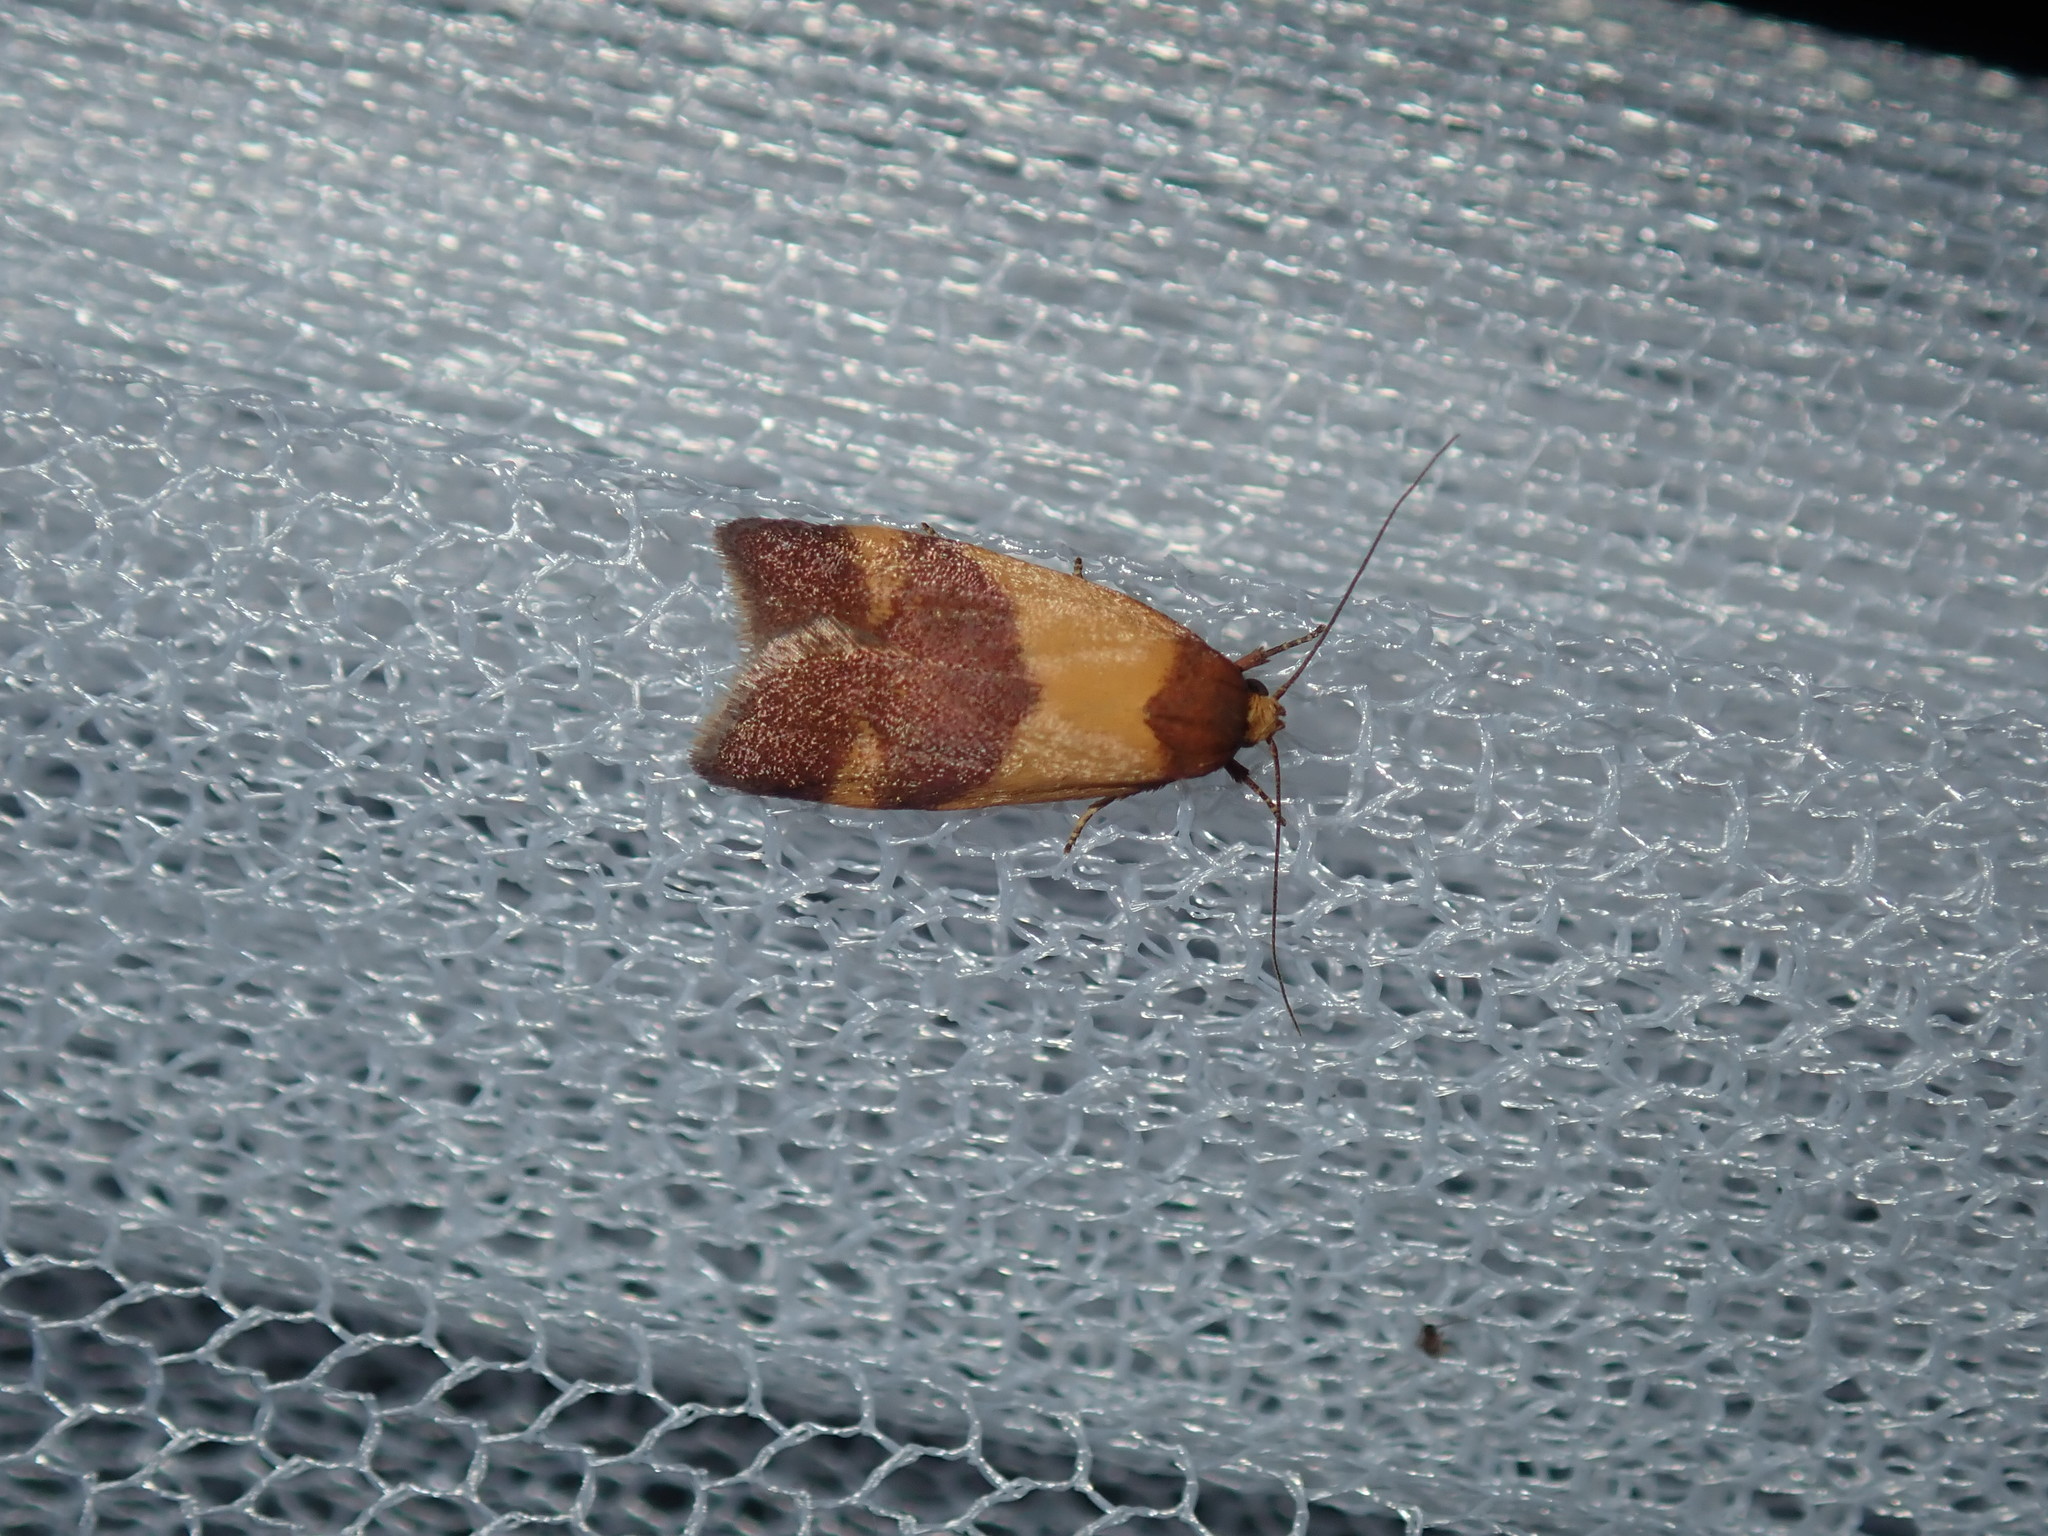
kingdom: Animalia
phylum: Arthropoda
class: Insecta
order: Lepidoptera
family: Oecophoridae
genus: Eochrois
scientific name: Eochrois epidesma
